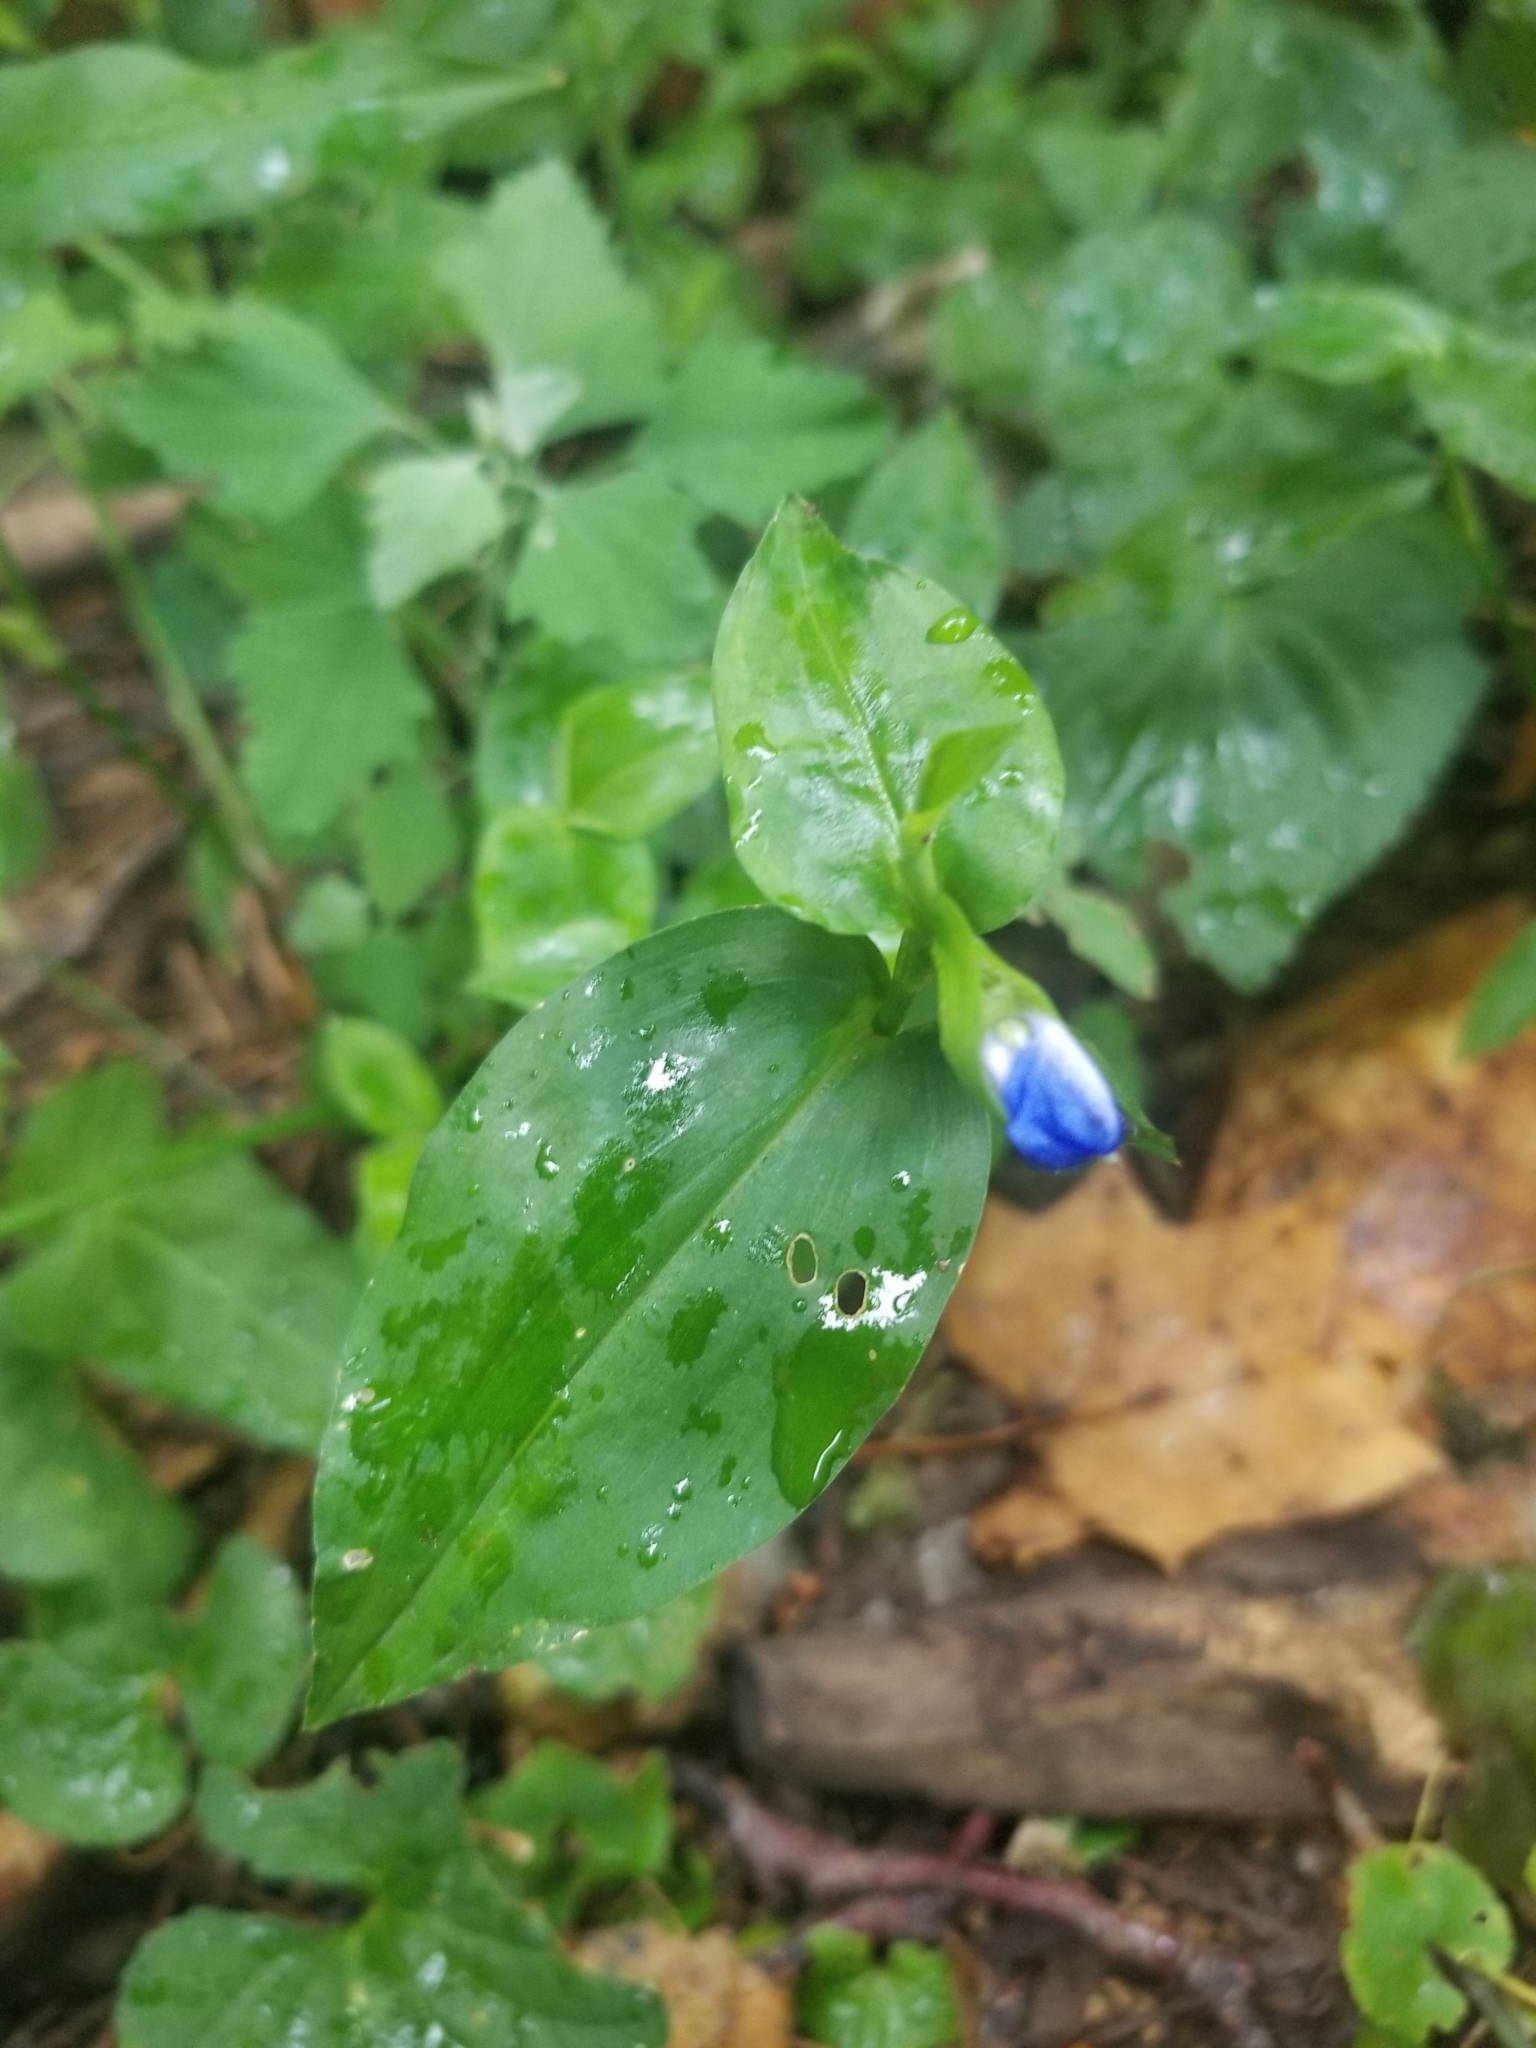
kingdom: Plantae
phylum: Tracheophyta
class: Liliopsida
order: Commelinales
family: Commelinaceae
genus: Commelina
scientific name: Commelina communis
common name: Asiatic dayflower
